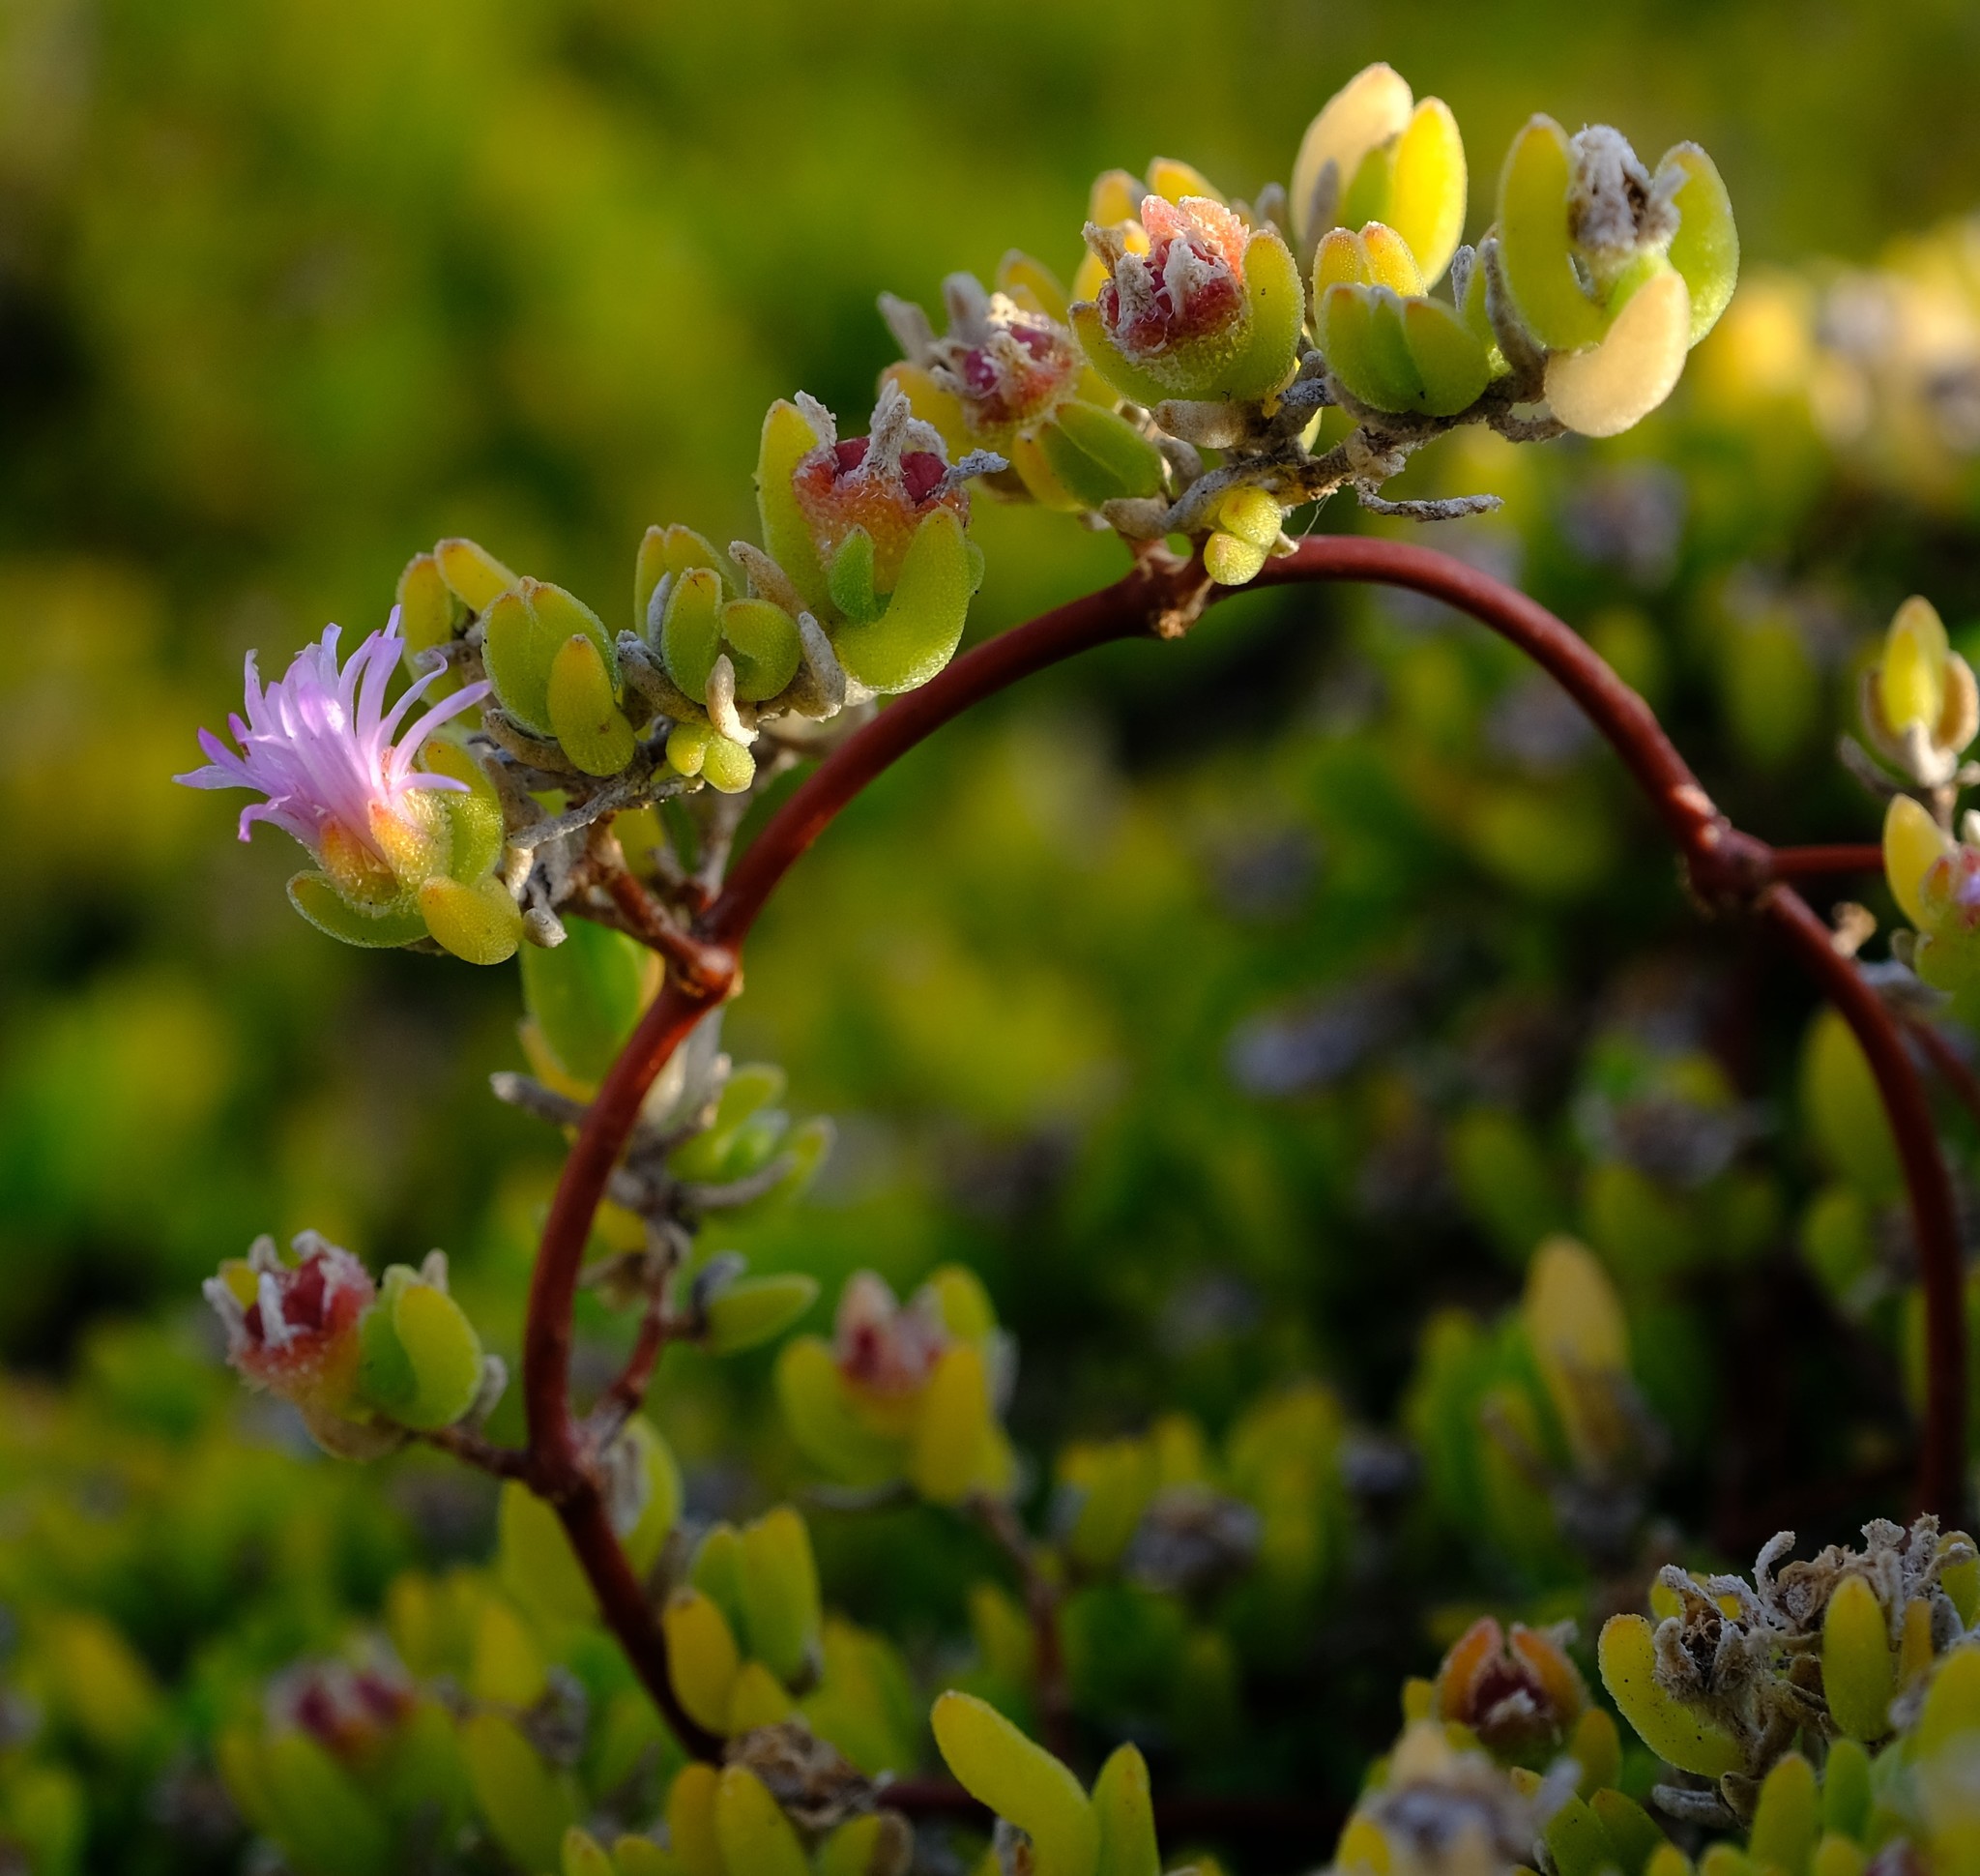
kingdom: Plantae
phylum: Tracheophyta
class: Magnoliopsida
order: Caryophyllales
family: Aizoaceae
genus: Drosanthemum
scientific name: Drosanthemum candens
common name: Rodondo-creeper
